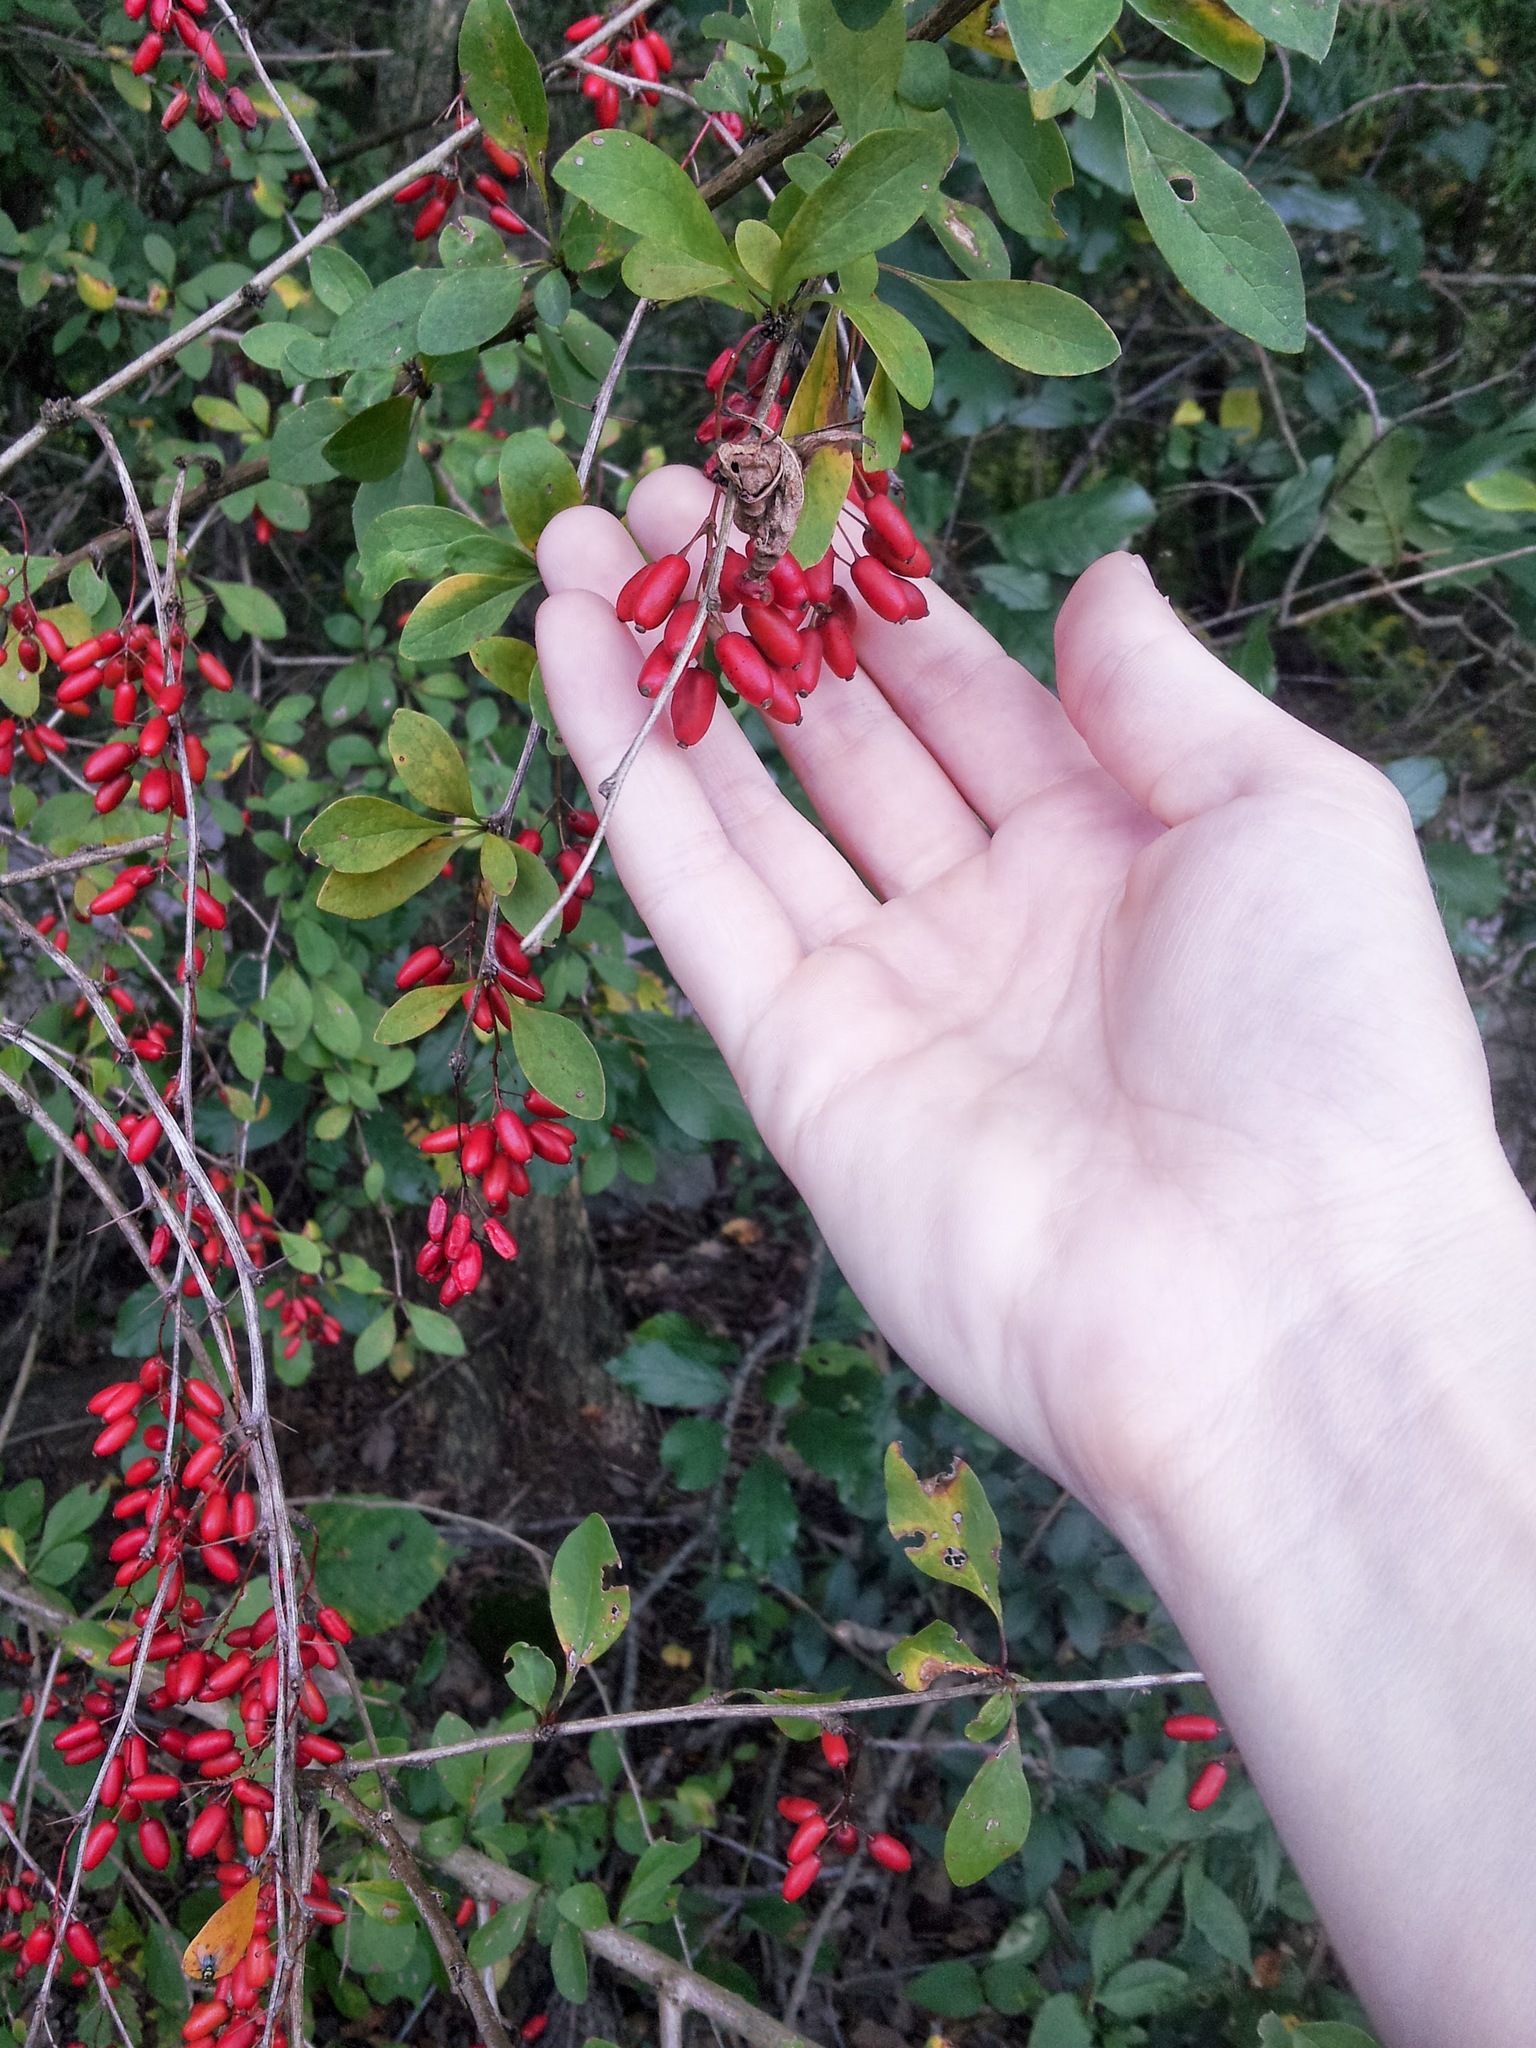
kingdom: Plantae
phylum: Tracheophyta
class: Magnoliopsida
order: Ranunculales
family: Berberidaceae
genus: Berberis
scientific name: Berberis ottawensis
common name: Ottawa barberry
